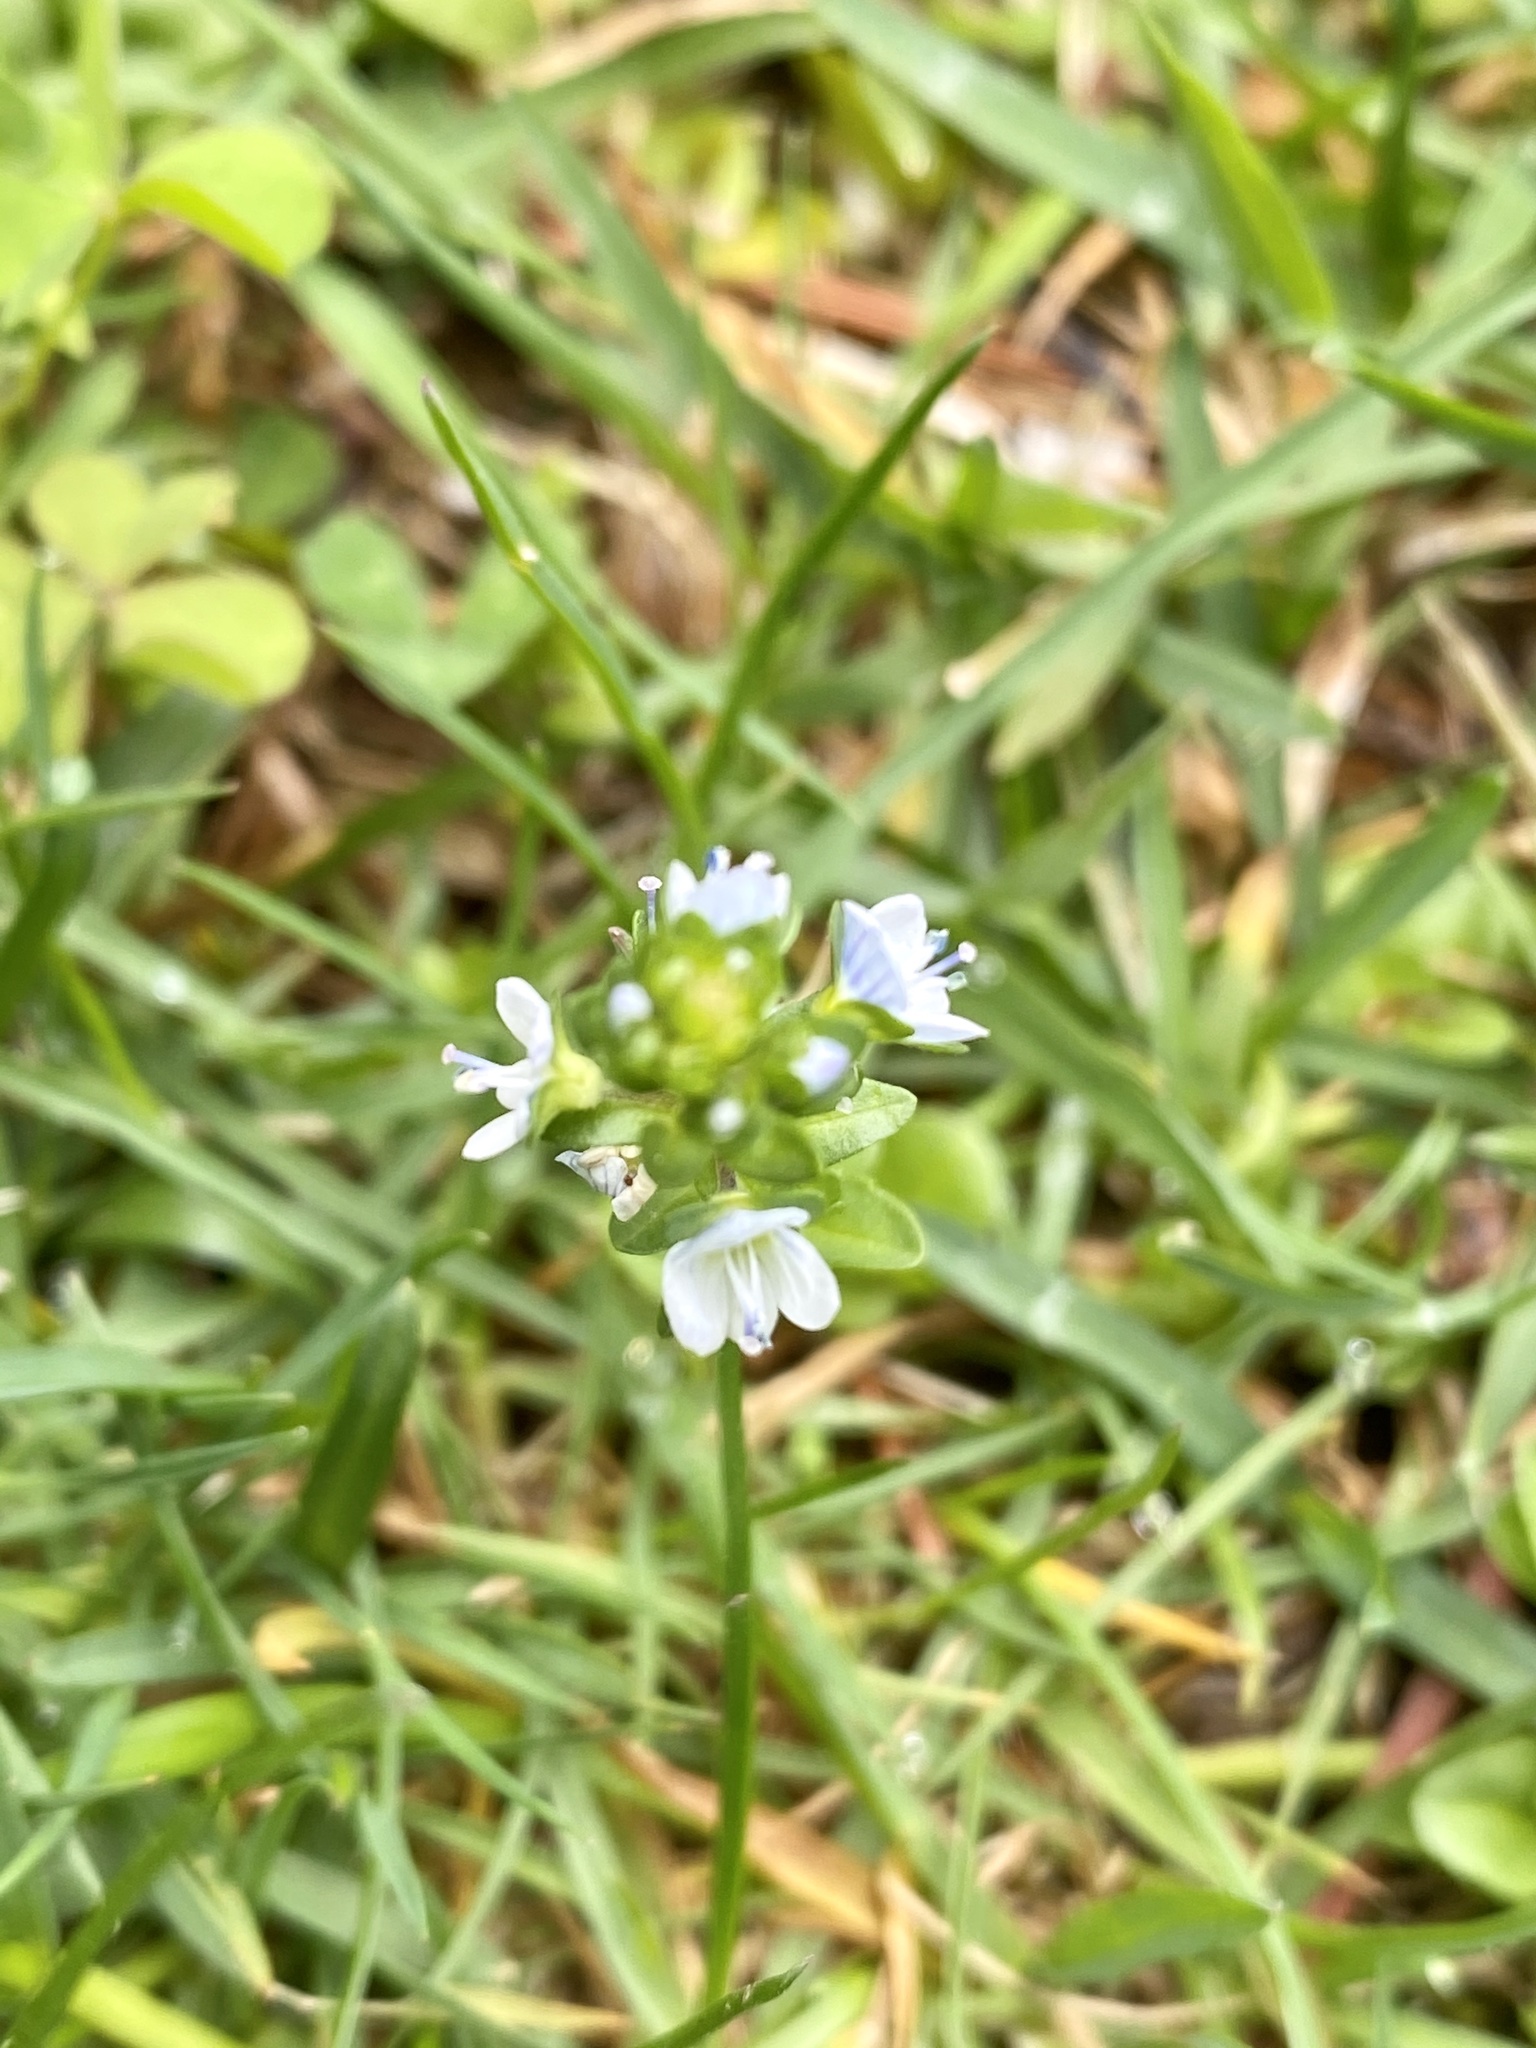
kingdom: Plantae
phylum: Tracheophyta
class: Magnoliopsida
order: Lamiales
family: Plantaginaceae
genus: Veronica
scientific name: Veronica serpyllifolia
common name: Thyme-leaved speedwell
